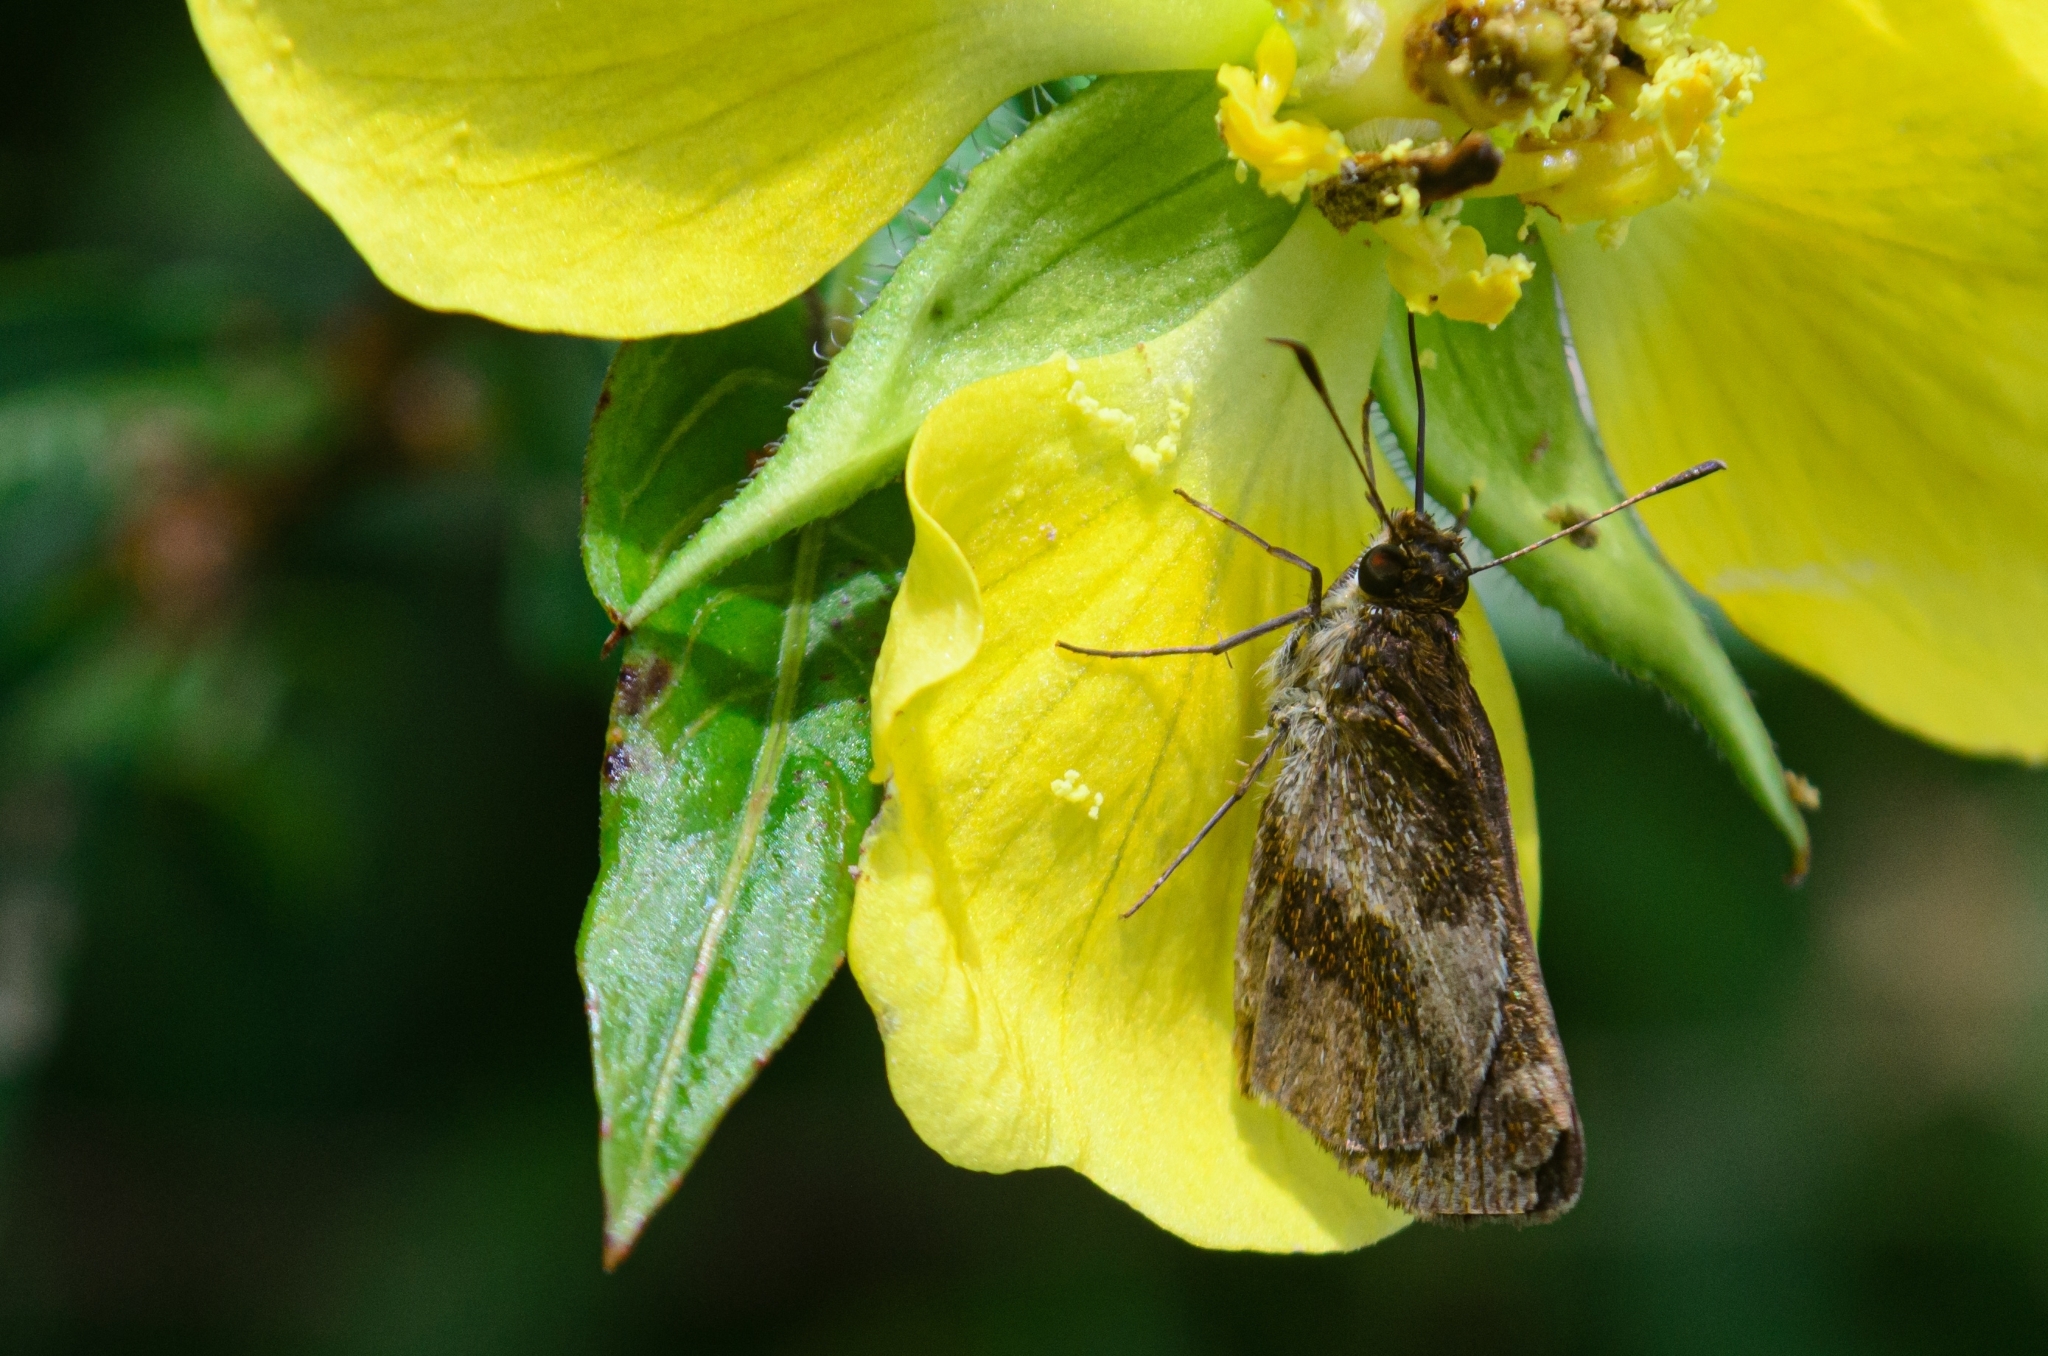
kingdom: Animalia
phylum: Arthropoda
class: Insecta
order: Lepidoptera
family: Hesperiidae
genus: Callimormus
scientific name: Callimormus
